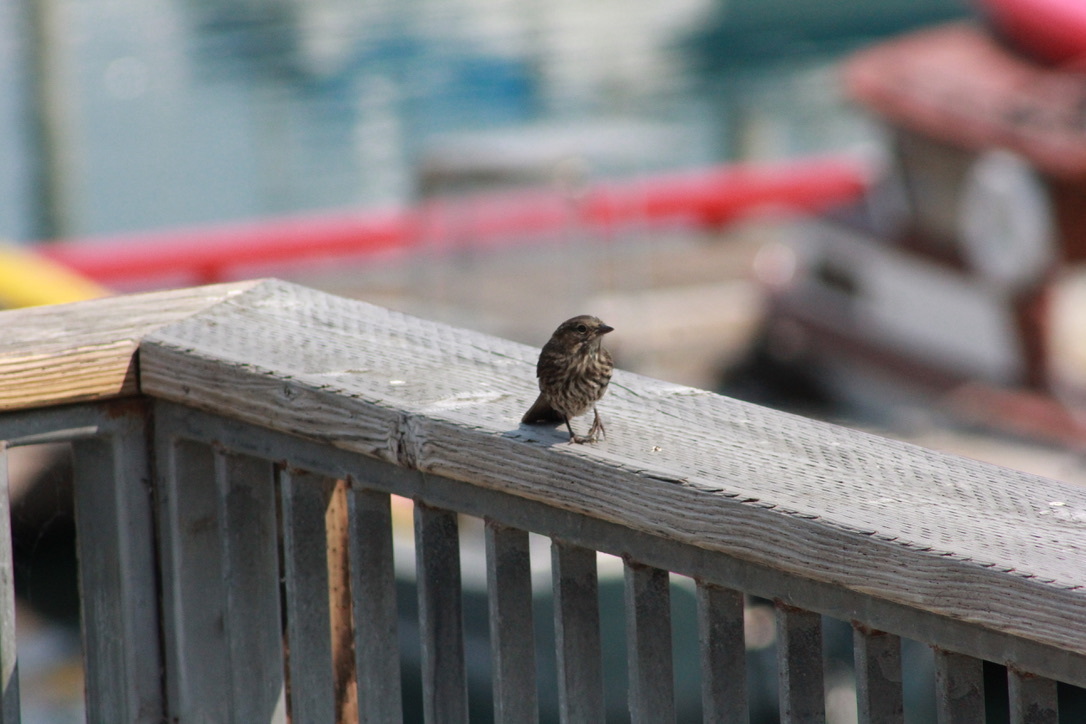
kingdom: Animalia
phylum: Chordata
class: Aves
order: Passeriformes
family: Passerellidae
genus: Melospiza
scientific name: Melospiza melodia
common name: Song sparrow
